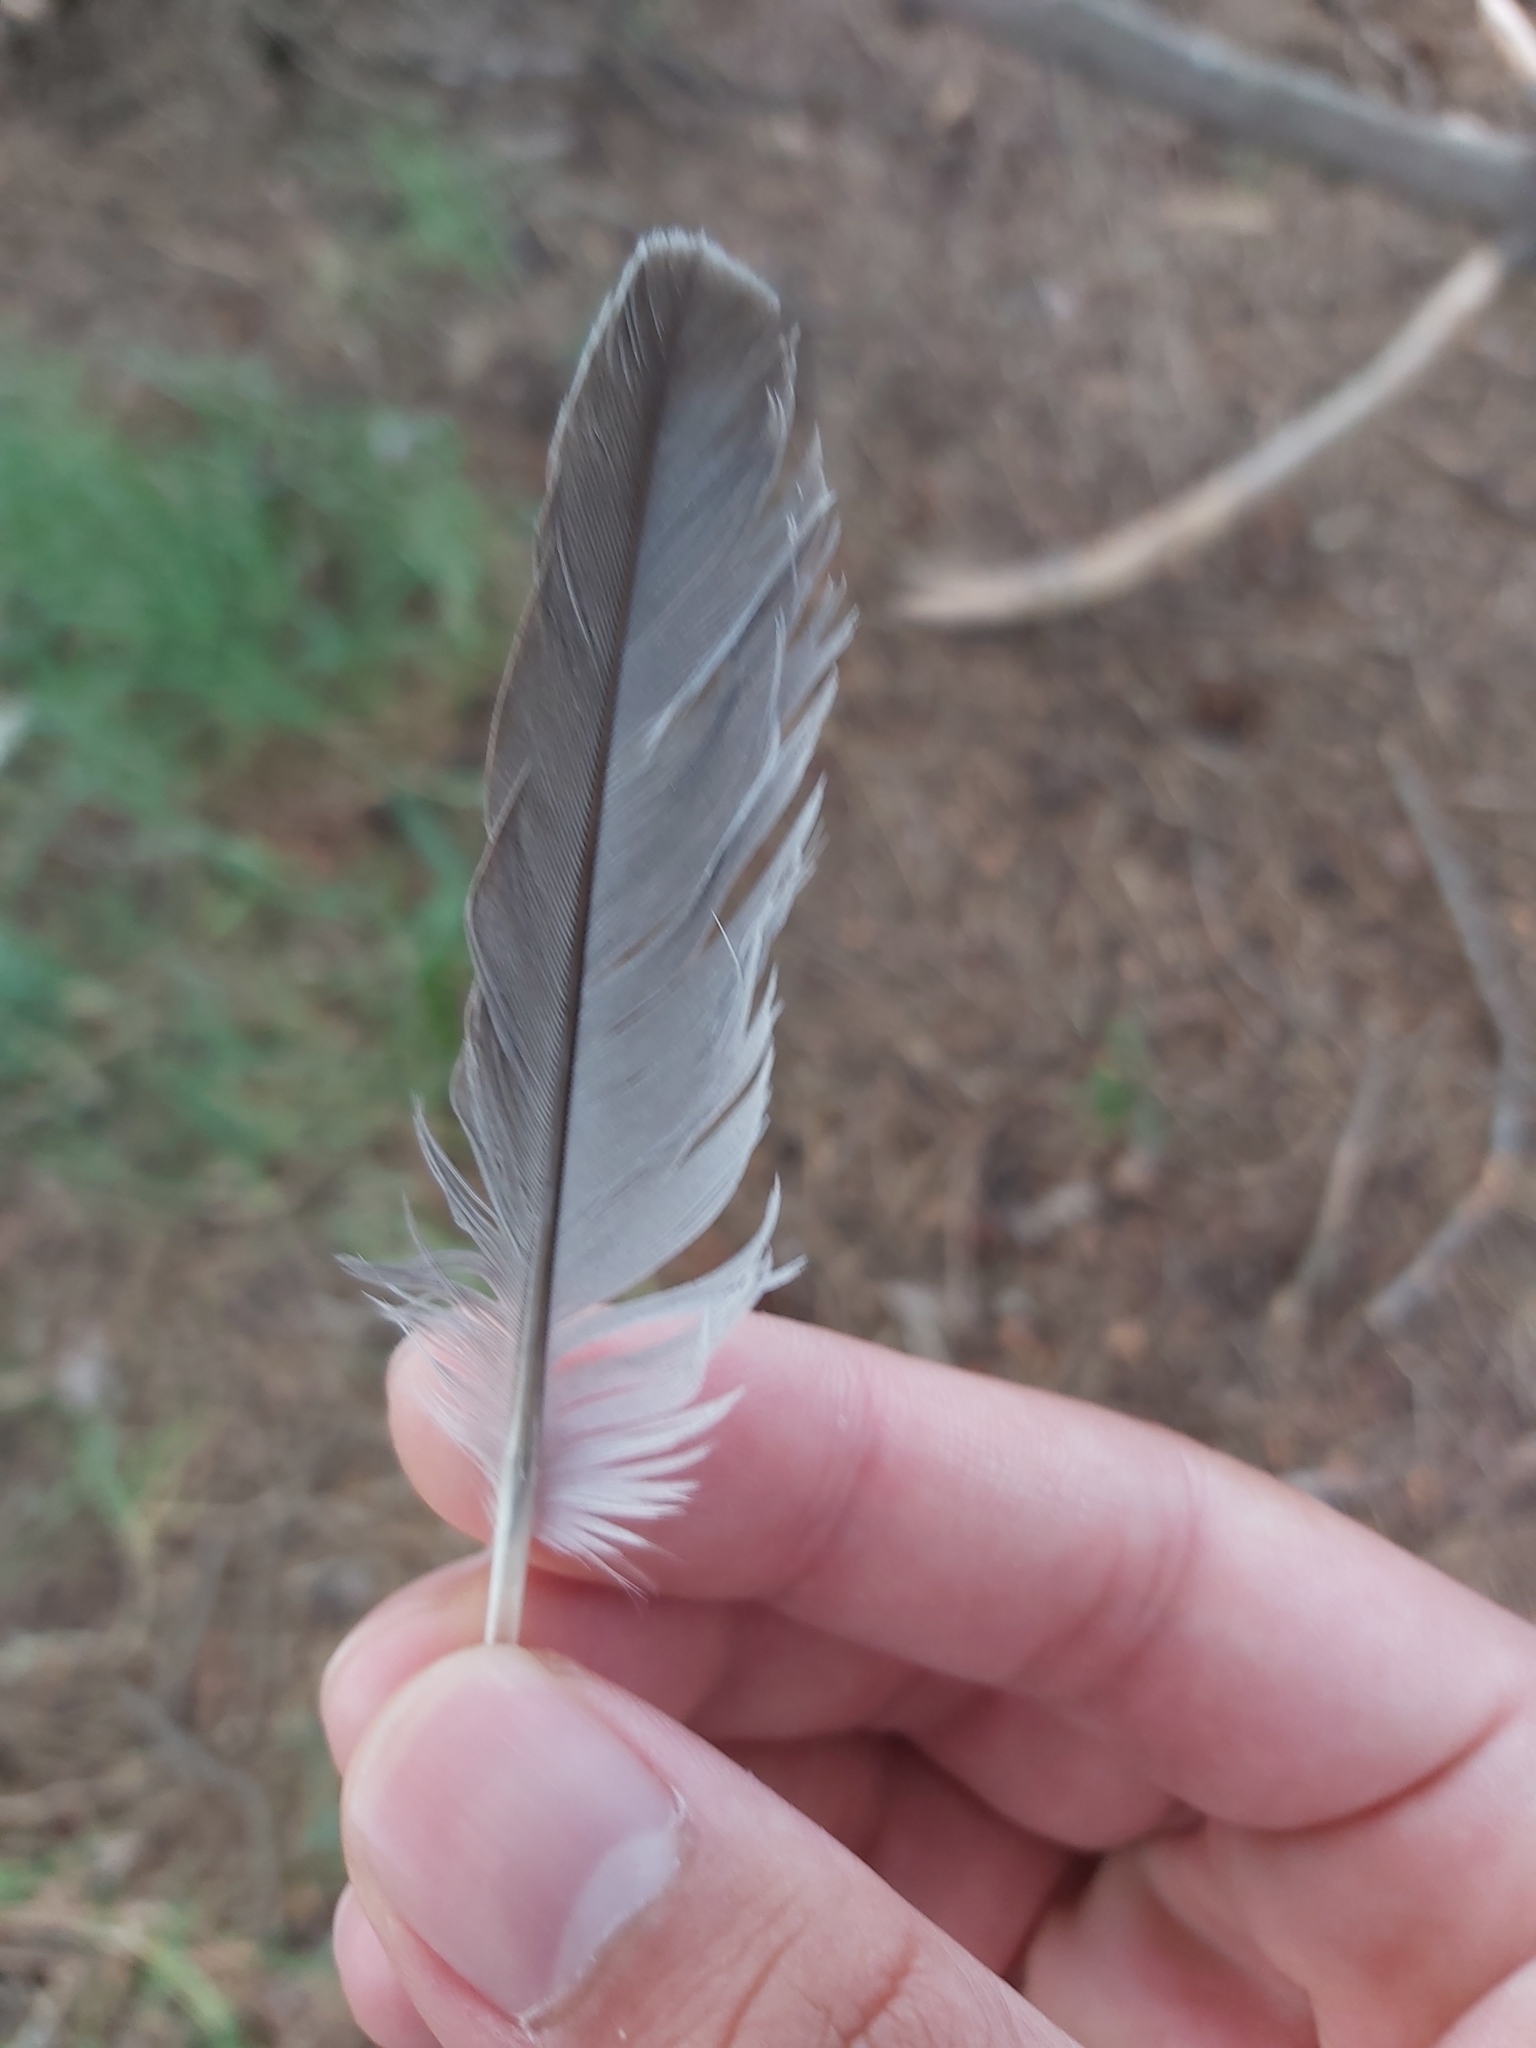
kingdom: Animalia
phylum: Chordata
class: Aves
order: Columbiformes
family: Columbidae
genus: Ocyphaps
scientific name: Ocyphaps lophotes
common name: Crested pigeon
